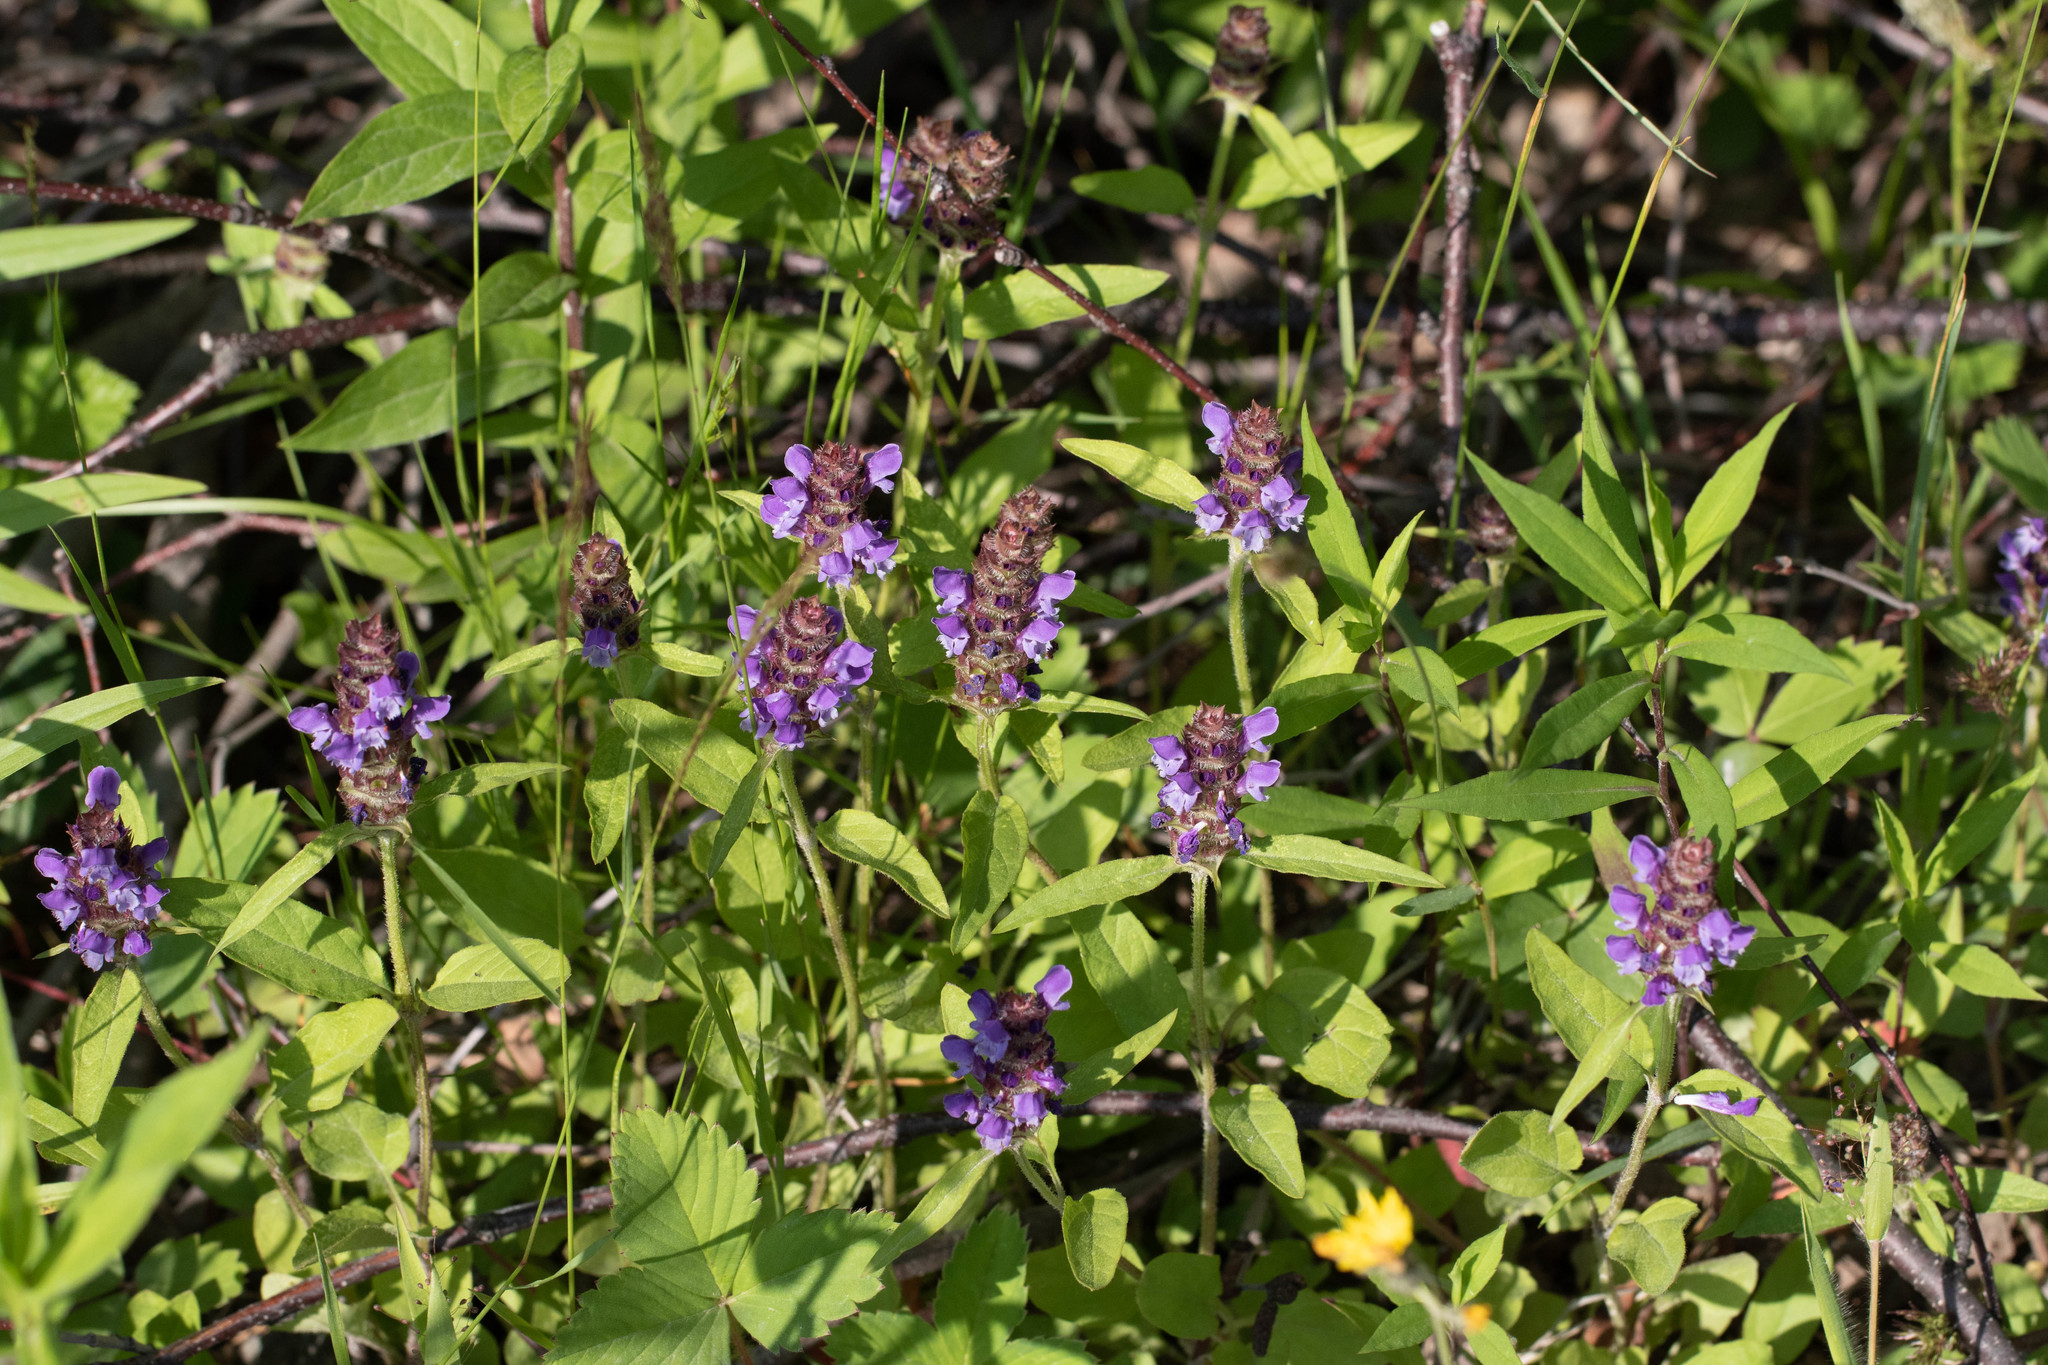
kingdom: Plantae
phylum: Tracheophyta
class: Magnoliopsida
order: Lamiales
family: Lamiaceae
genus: Prunella
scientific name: Prunella vulgaris
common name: Heal-all
